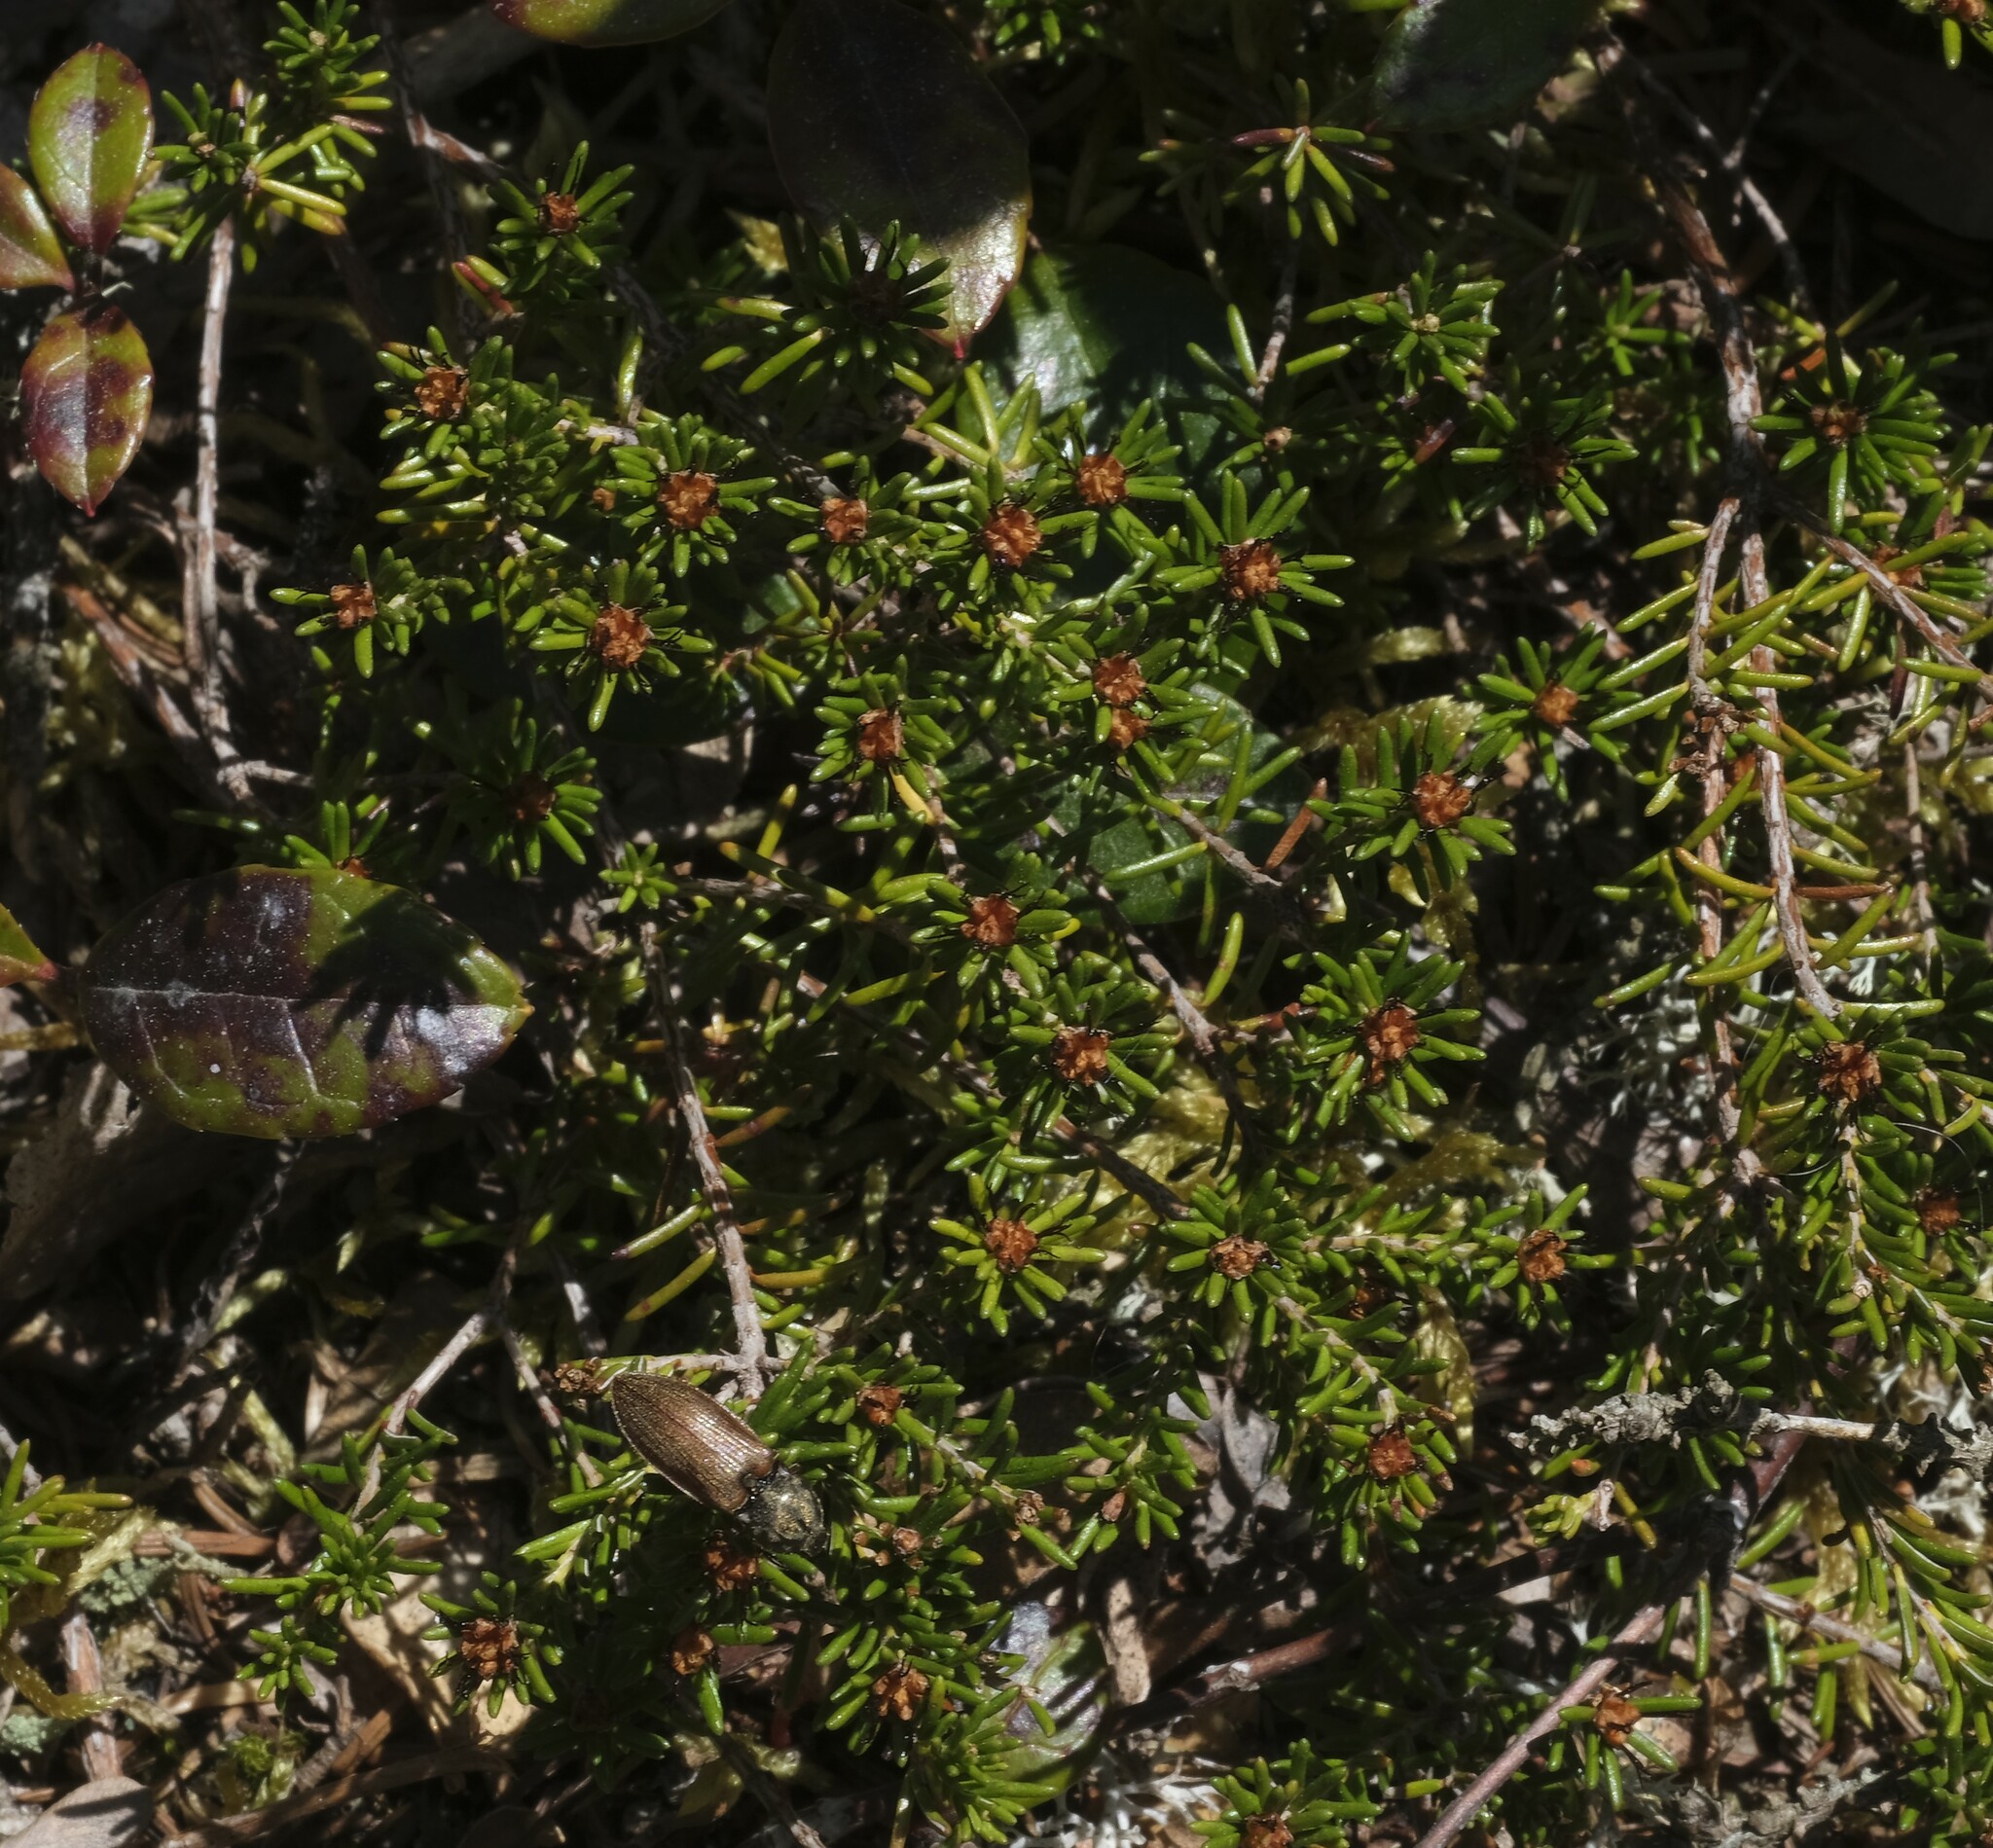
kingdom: Plantae
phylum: Tracheophyta
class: Magnoliopsida
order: Ericales
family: Ericaceae
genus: Corema
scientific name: Corema conradii
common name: Broom-crowberry
